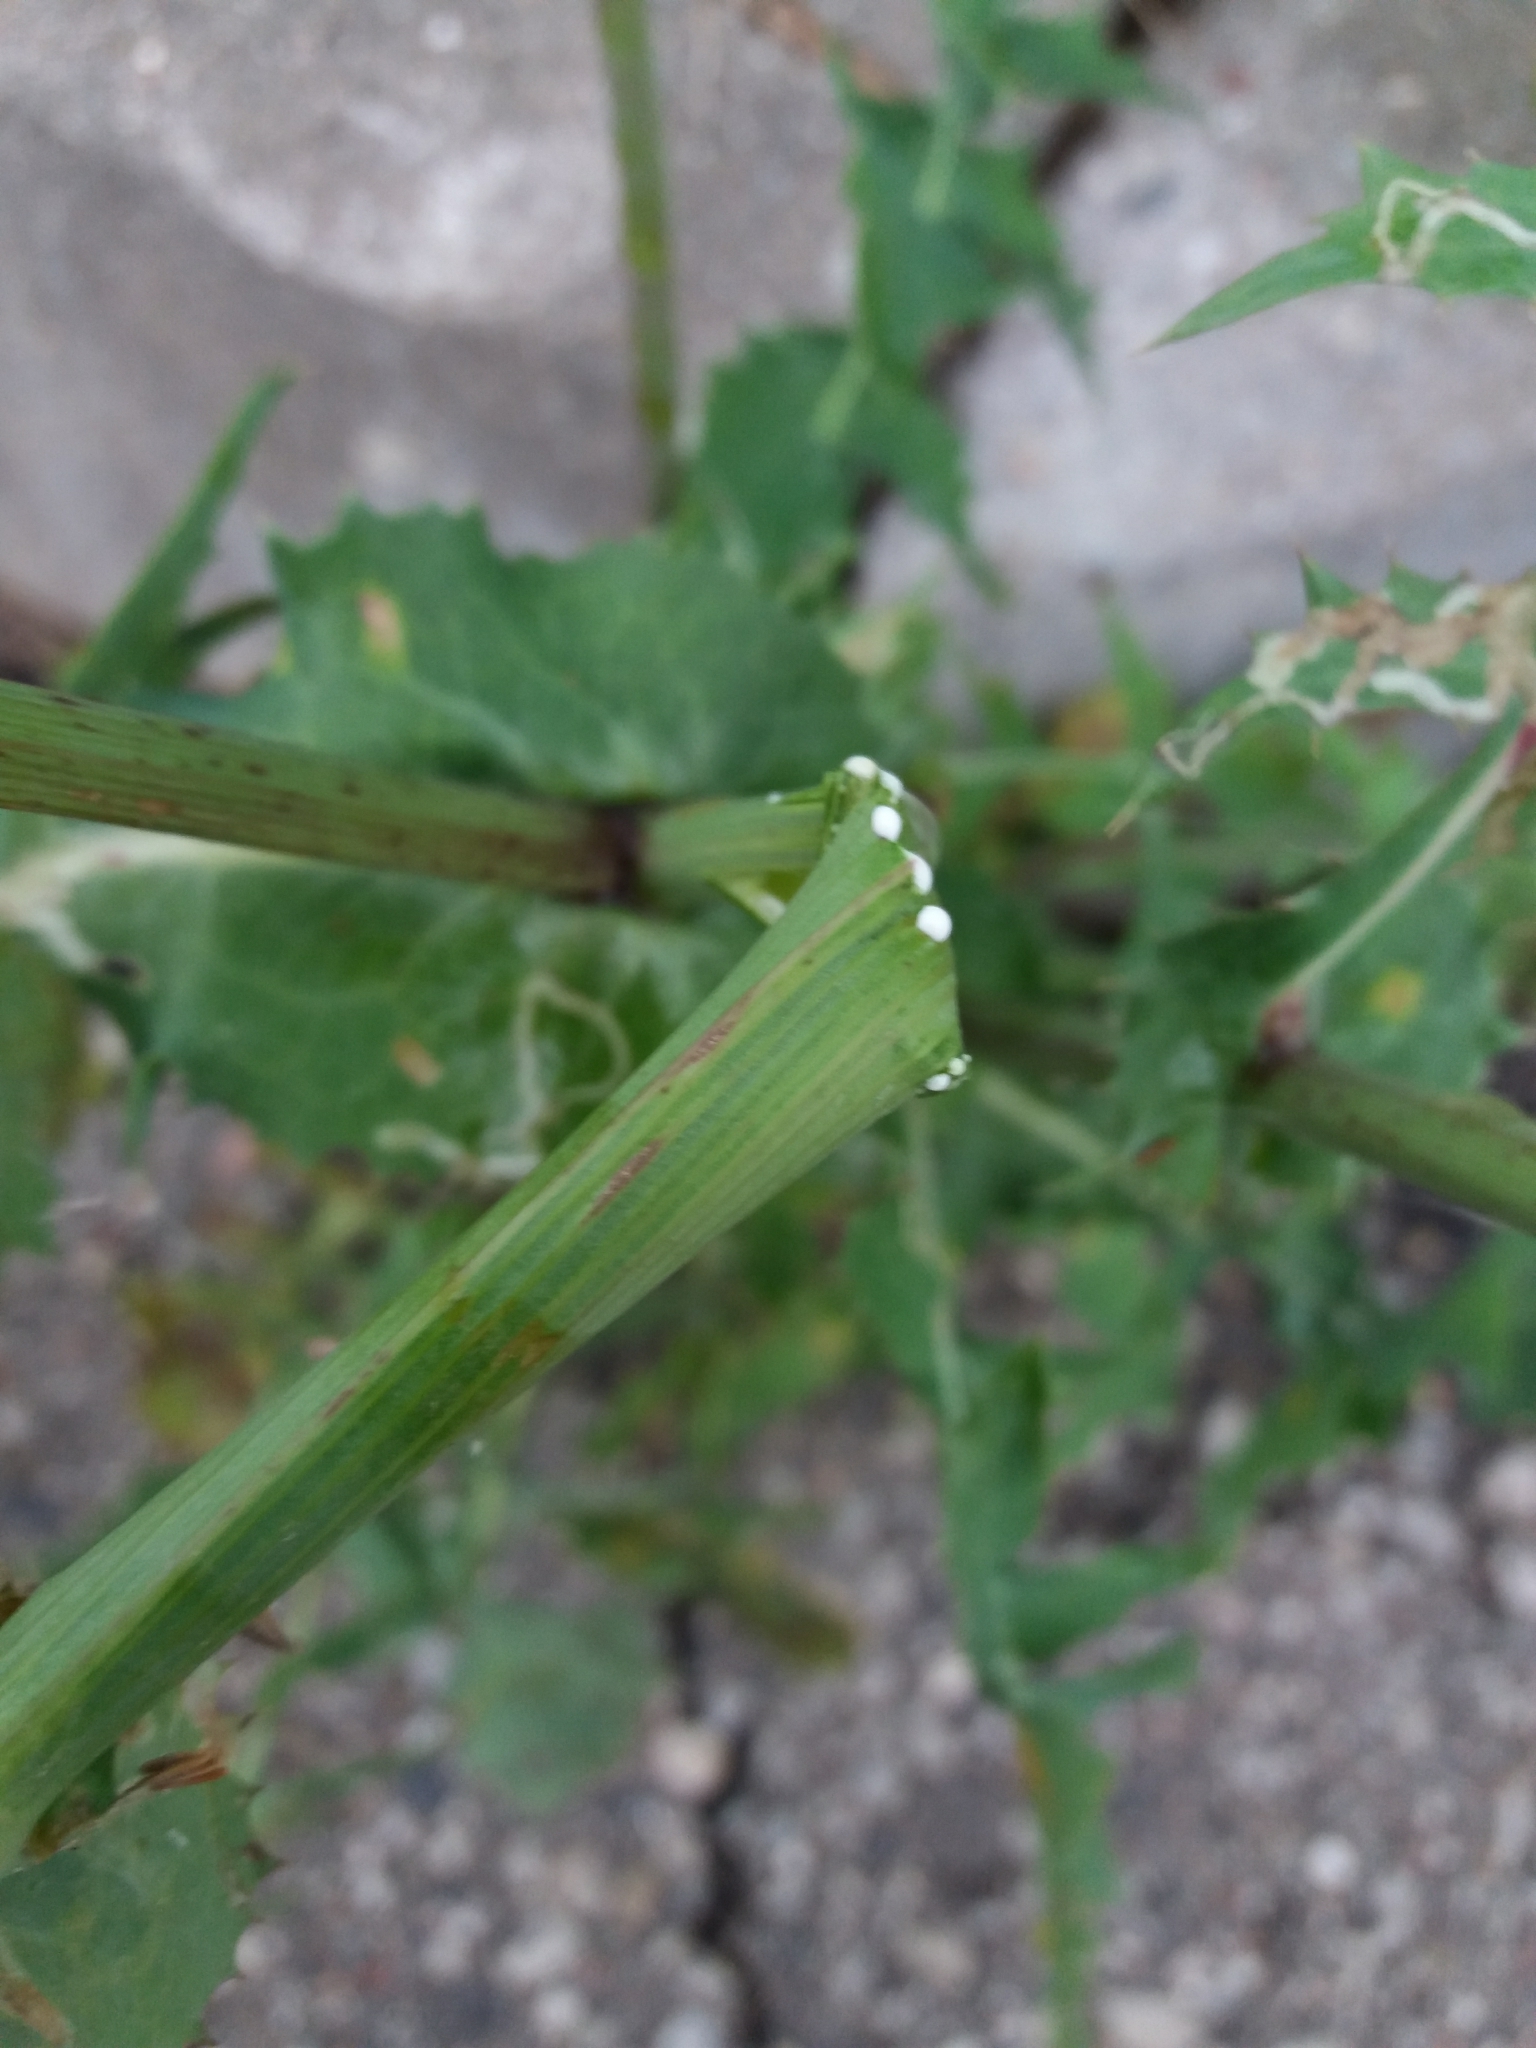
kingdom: Plantae
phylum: Tracheophyta
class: Magnoliopsida
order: Asterales
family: Asteraceae
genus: Sonchus
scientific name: Sonchus oleraceus
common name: Common sowthistle
